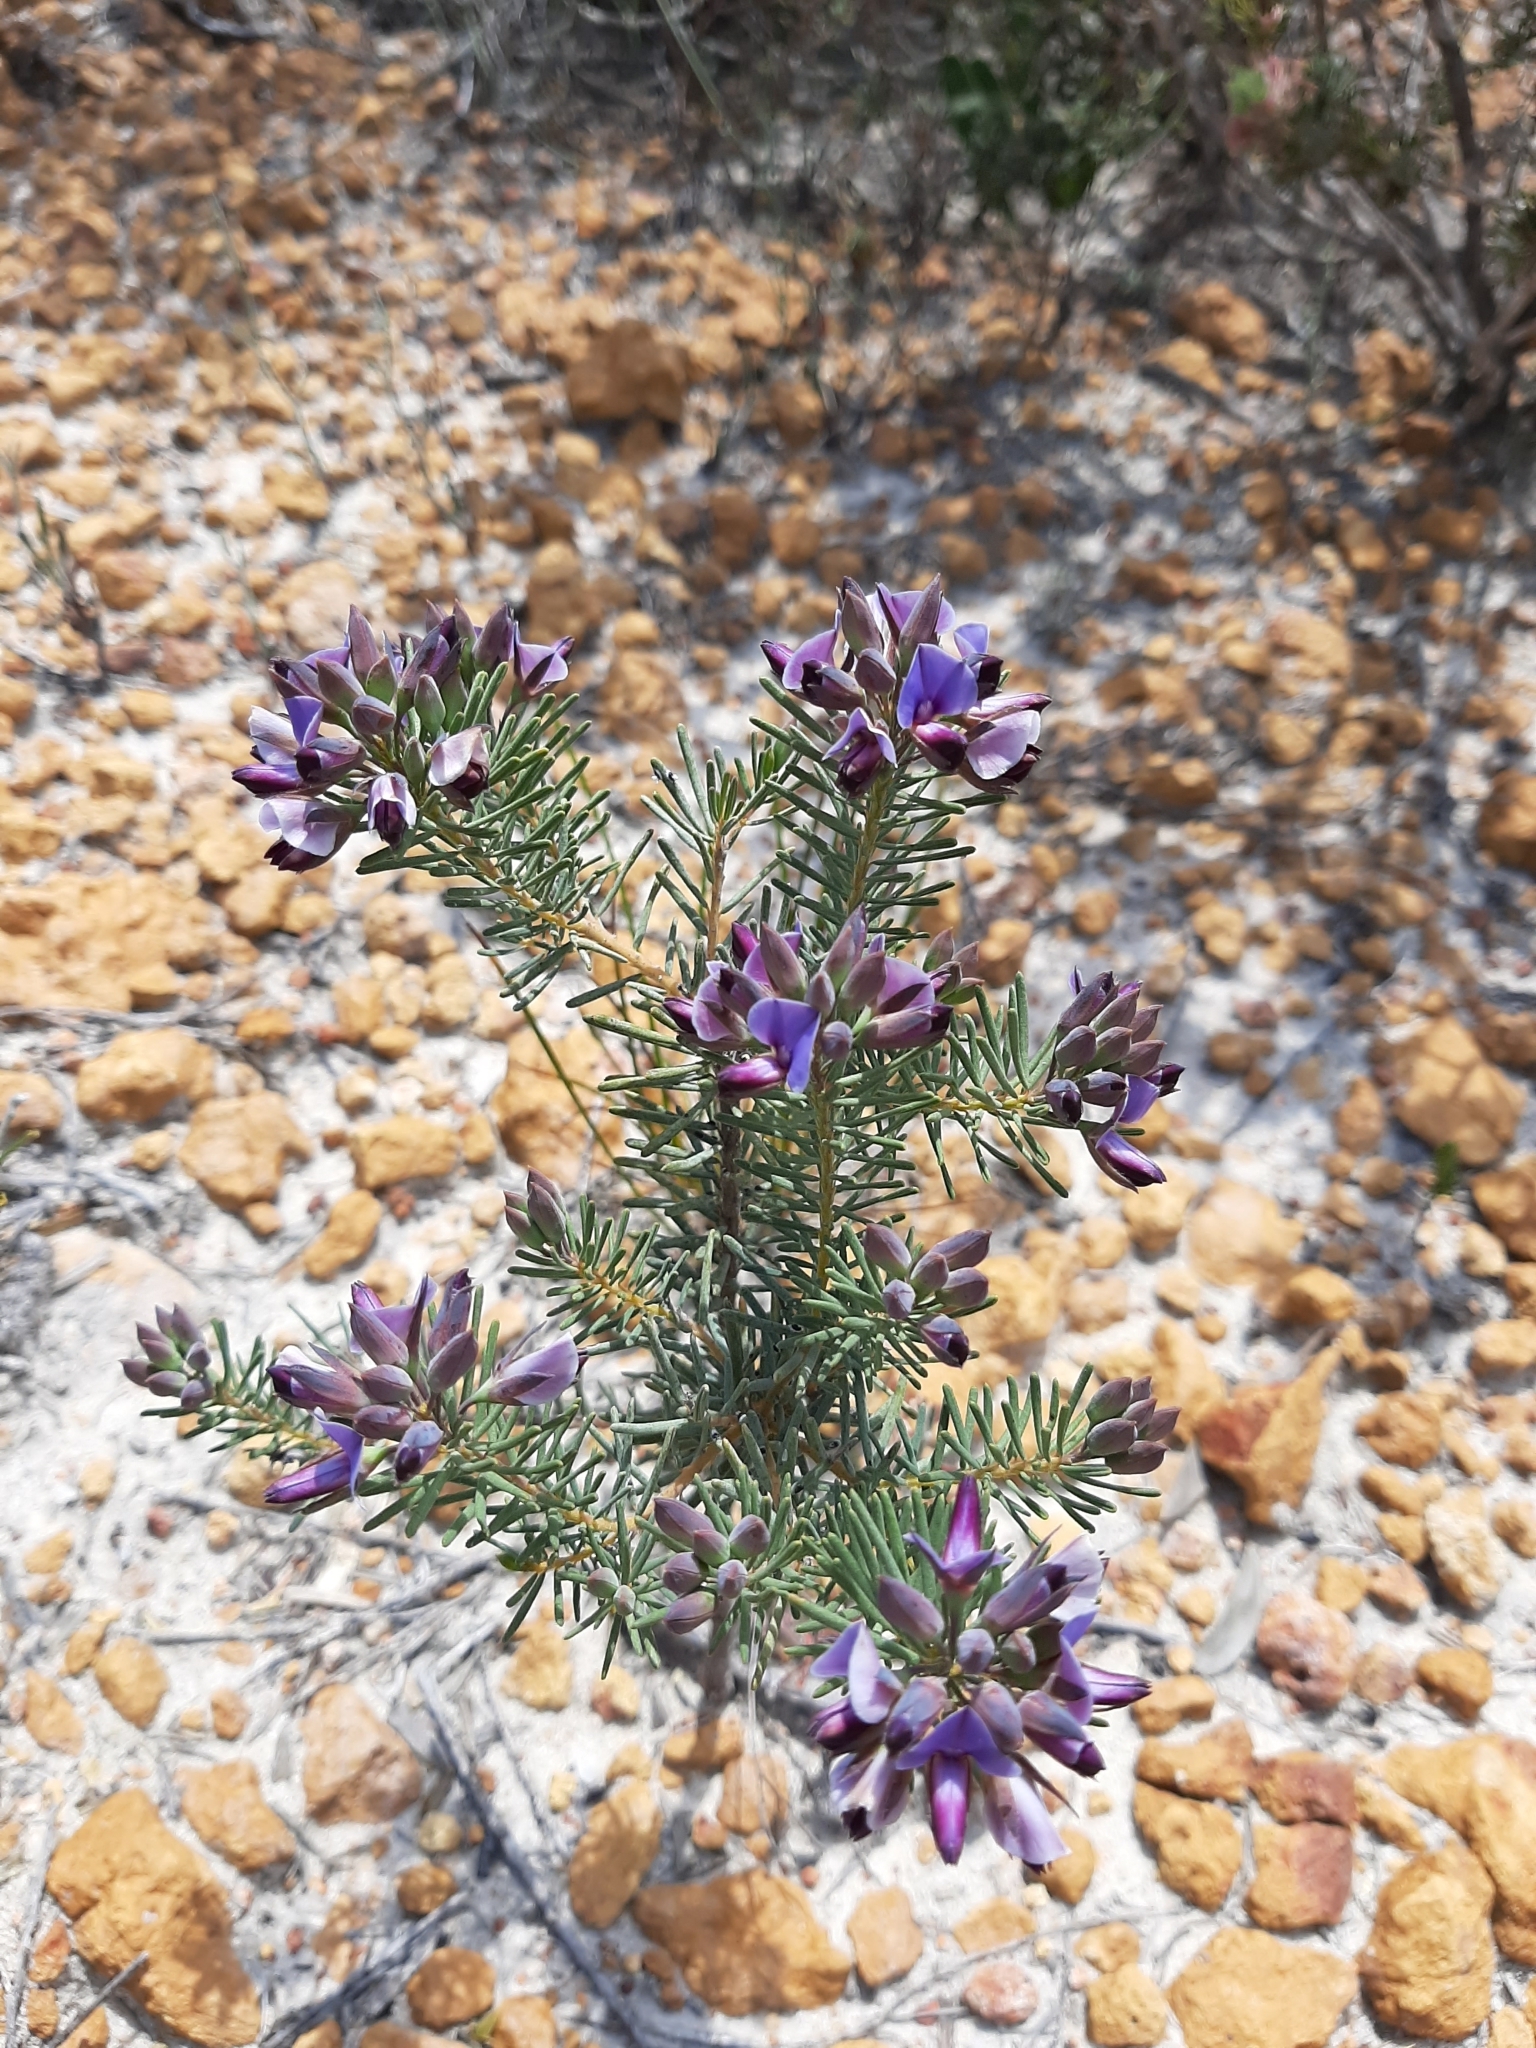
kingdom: Plantae
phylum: Tracheophyta
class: Magnoliopsida
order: Fabales
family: Fabaceae
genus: Gompholobium
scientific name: Gompholobium confertum
